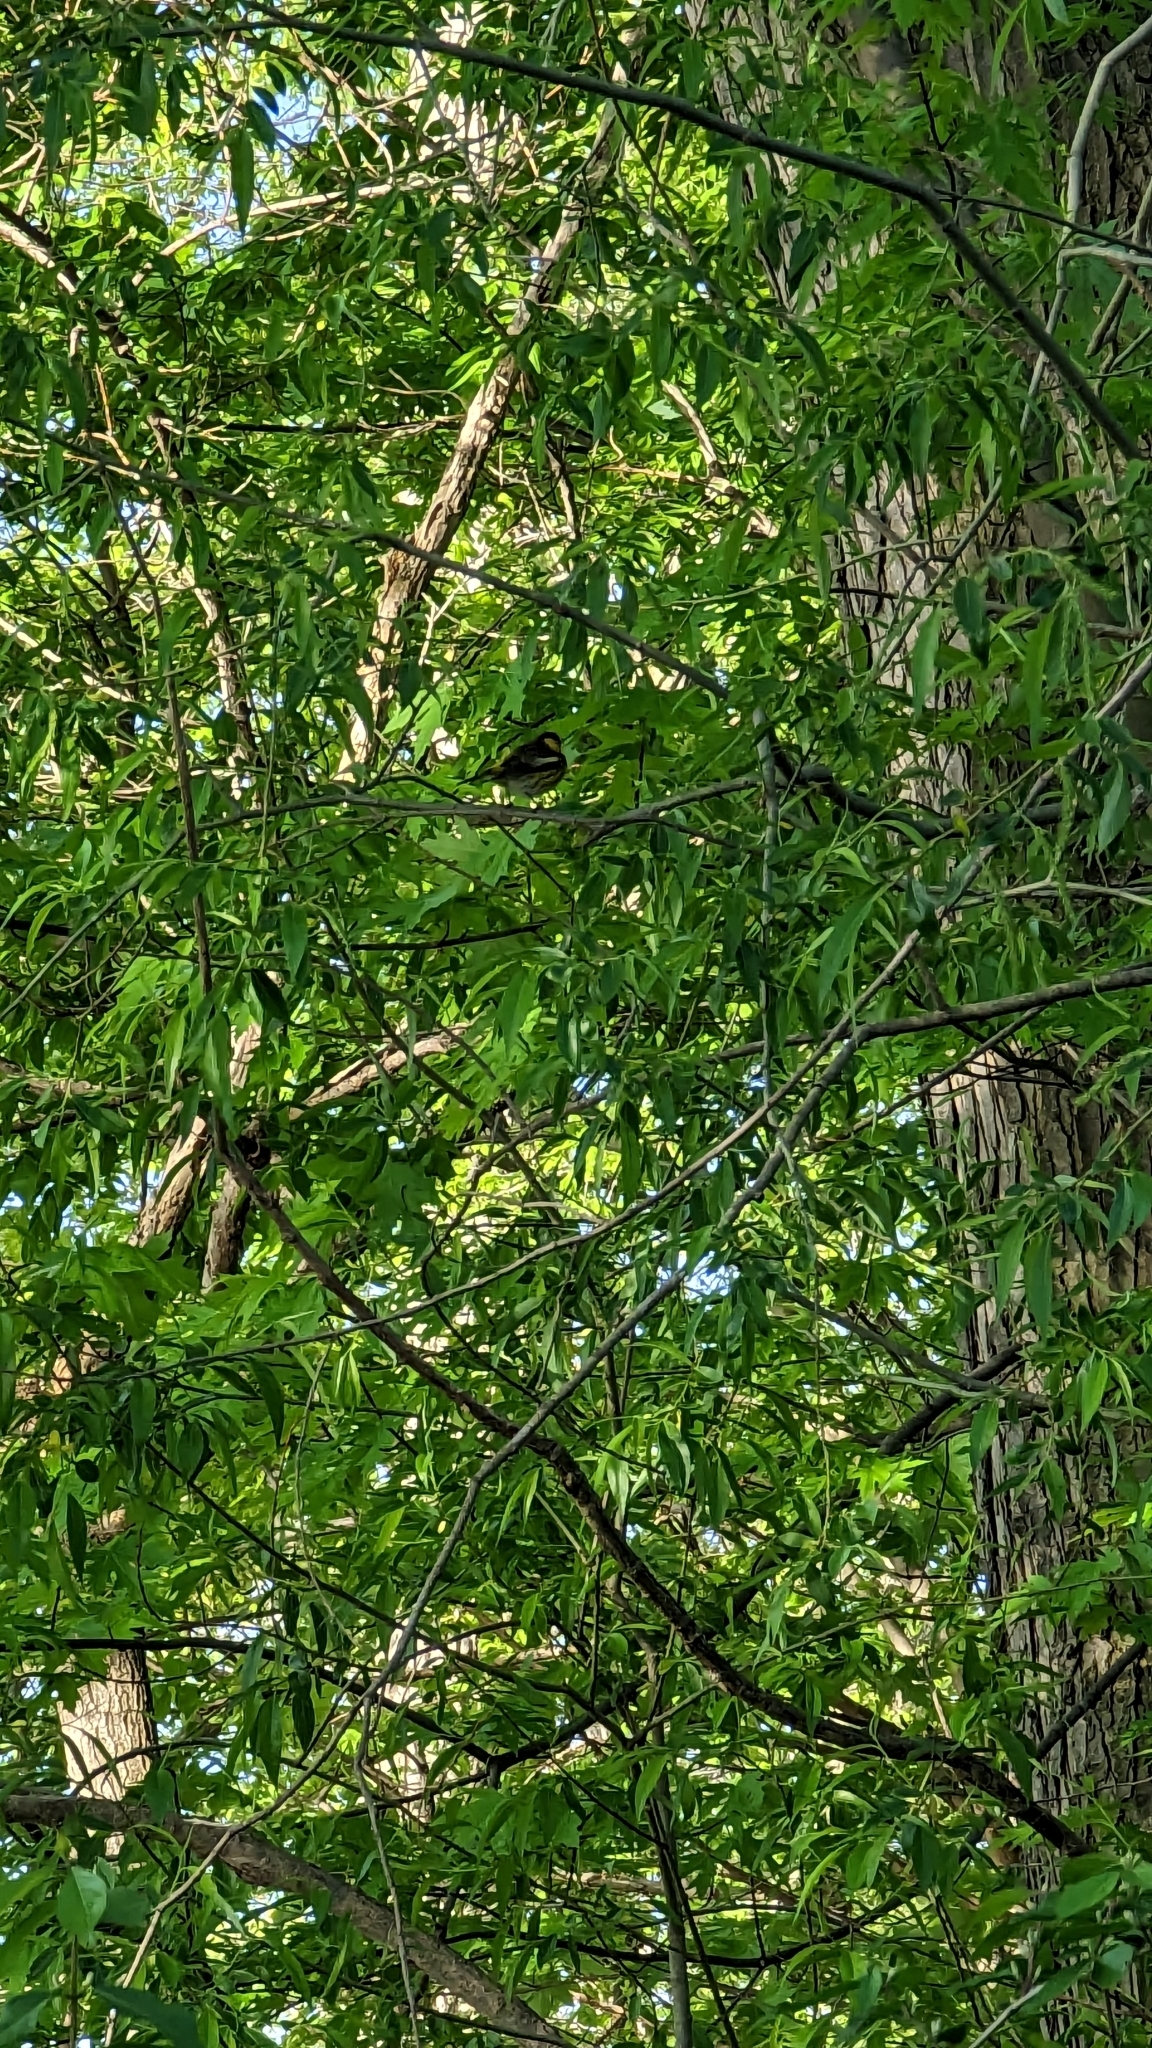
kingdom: Animalia
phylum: Chordata
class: Aves
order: Passeriformes
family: Parulidae
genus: Setophaga
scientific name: Setophaga tigrina
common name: Cape may warbler
